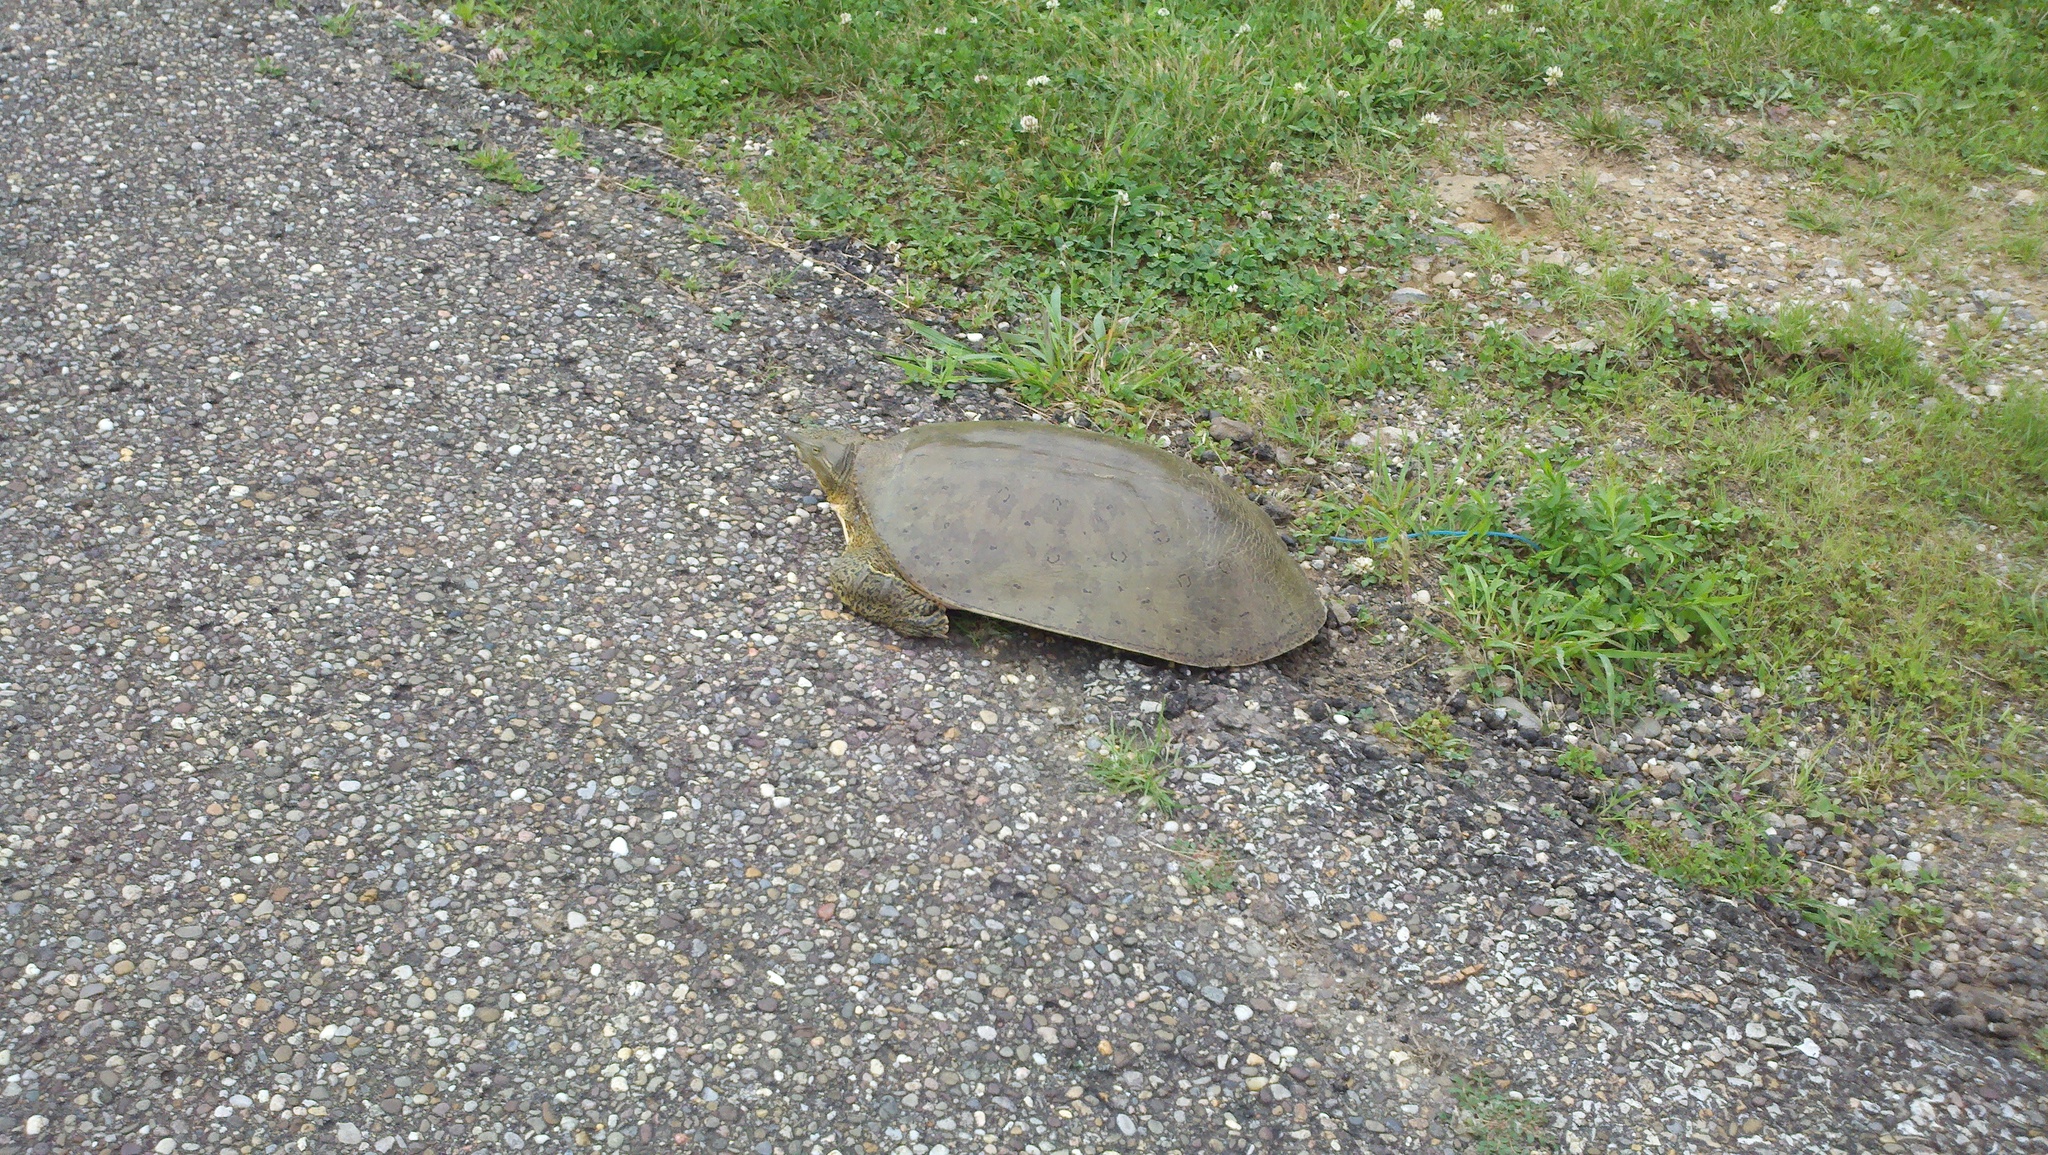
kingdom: Animalia
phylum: Chordata
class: Testudines
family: Trionychidae
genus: Apalone
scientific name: Apalone spinifera
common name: Spiny softshell turtle
